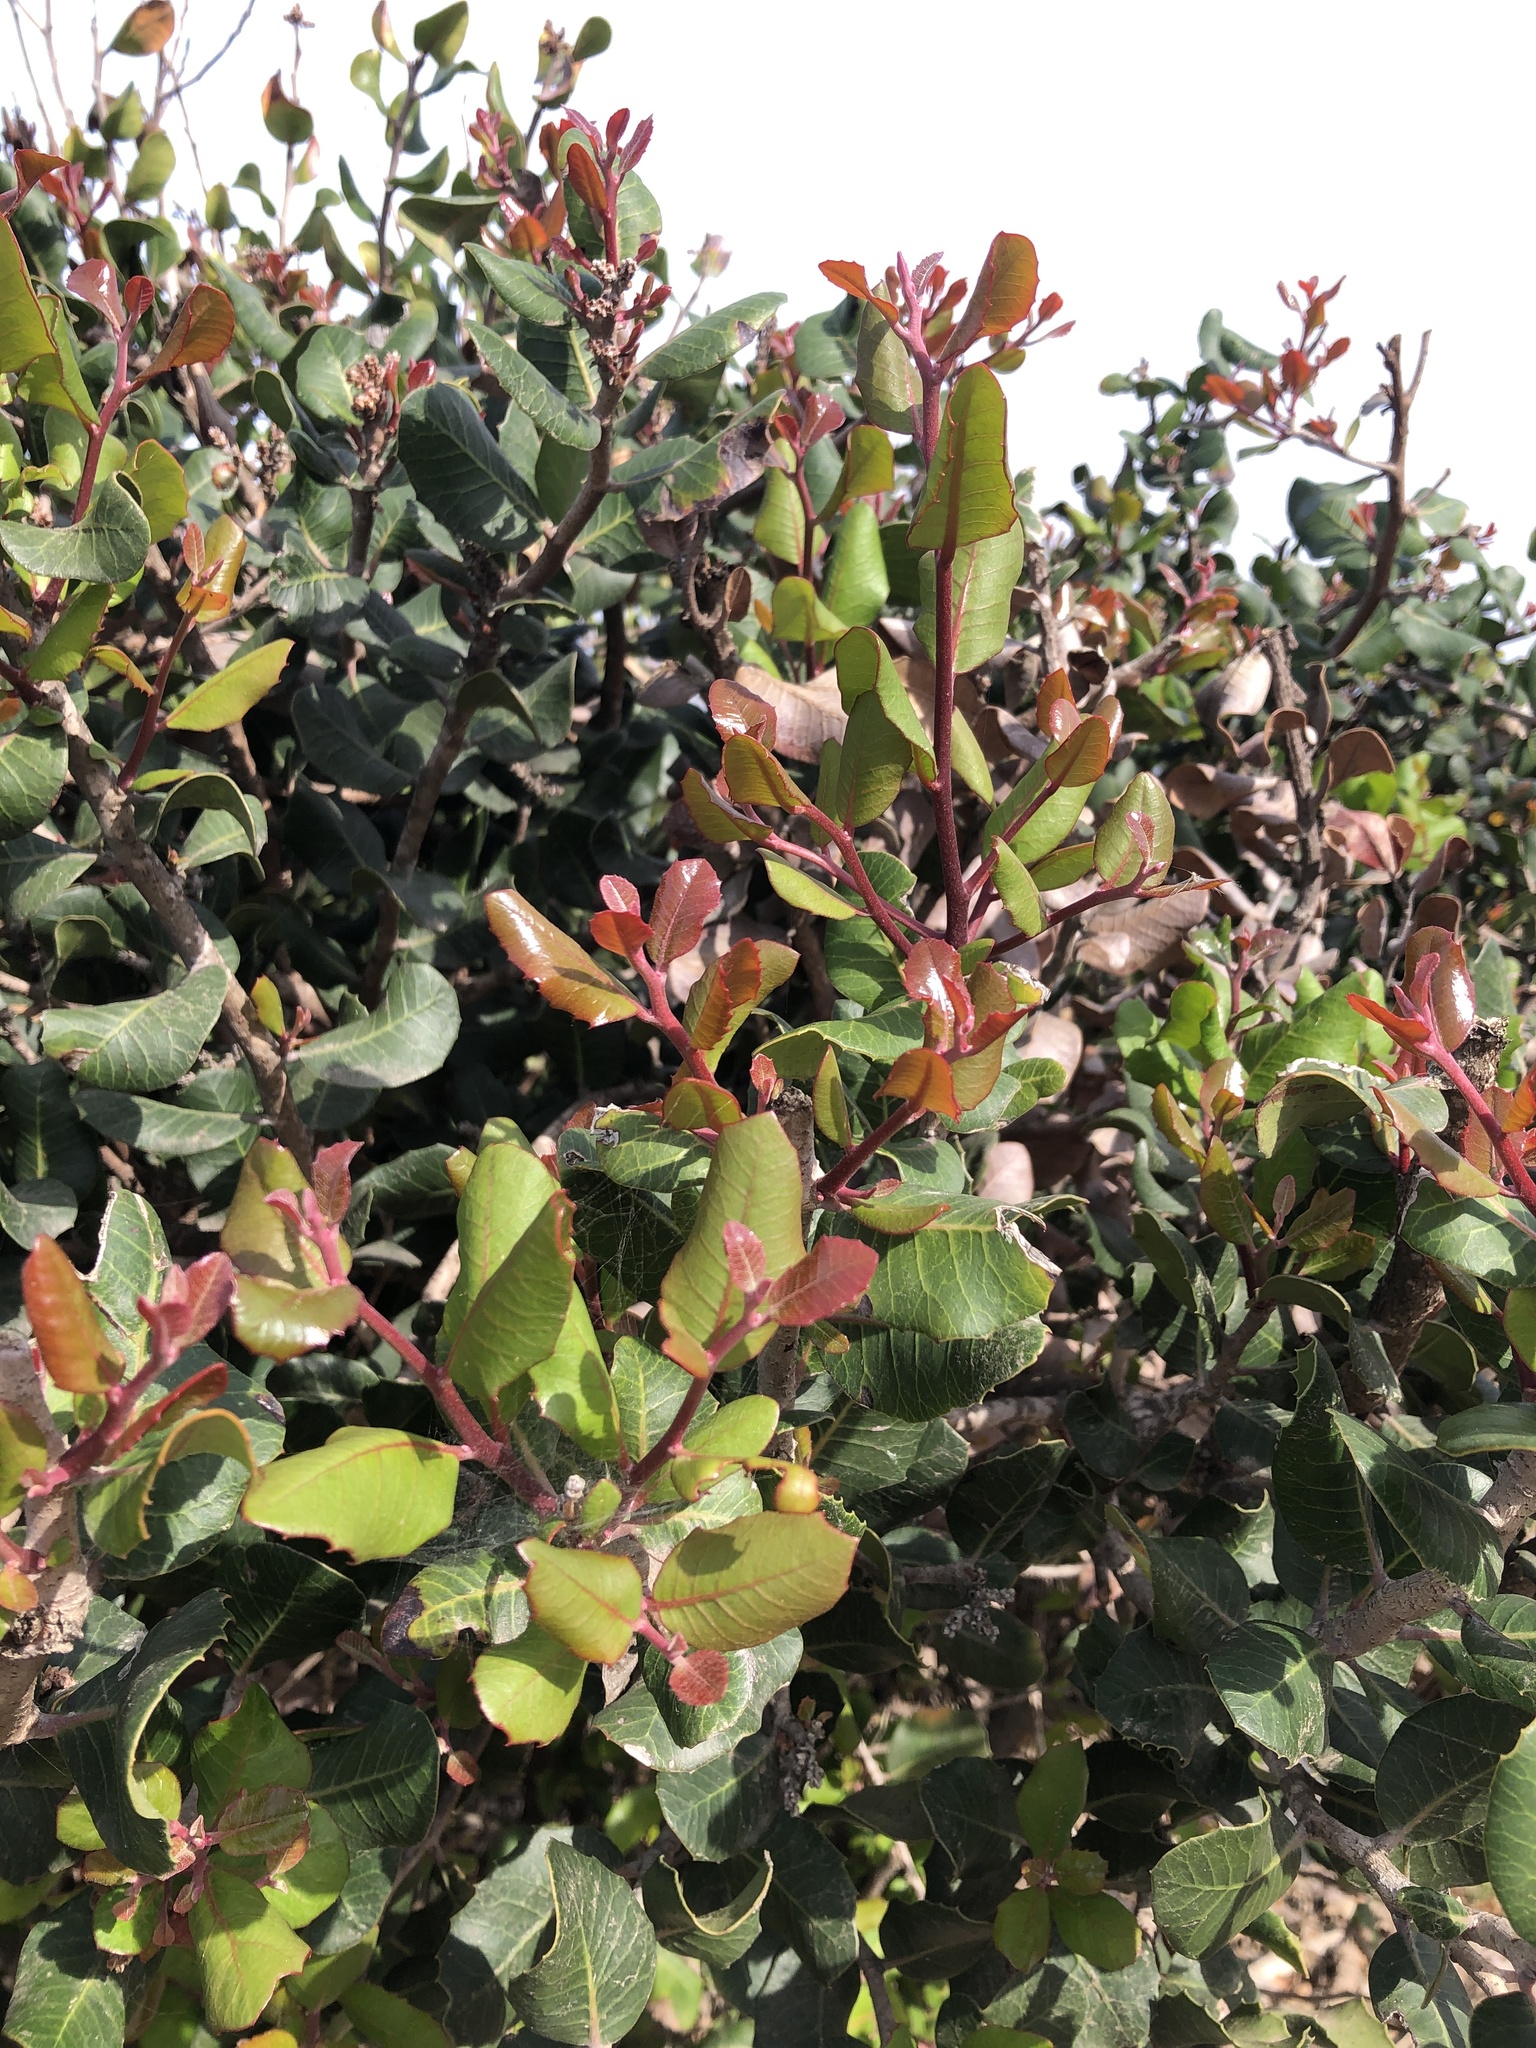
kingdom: Plantae
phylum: Tracheophyta
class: Magnoliopsida
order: Sapindales
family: Anacardiaceae
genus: Rhus
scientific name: Rhus integrifolia
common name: Lemonade sumac
